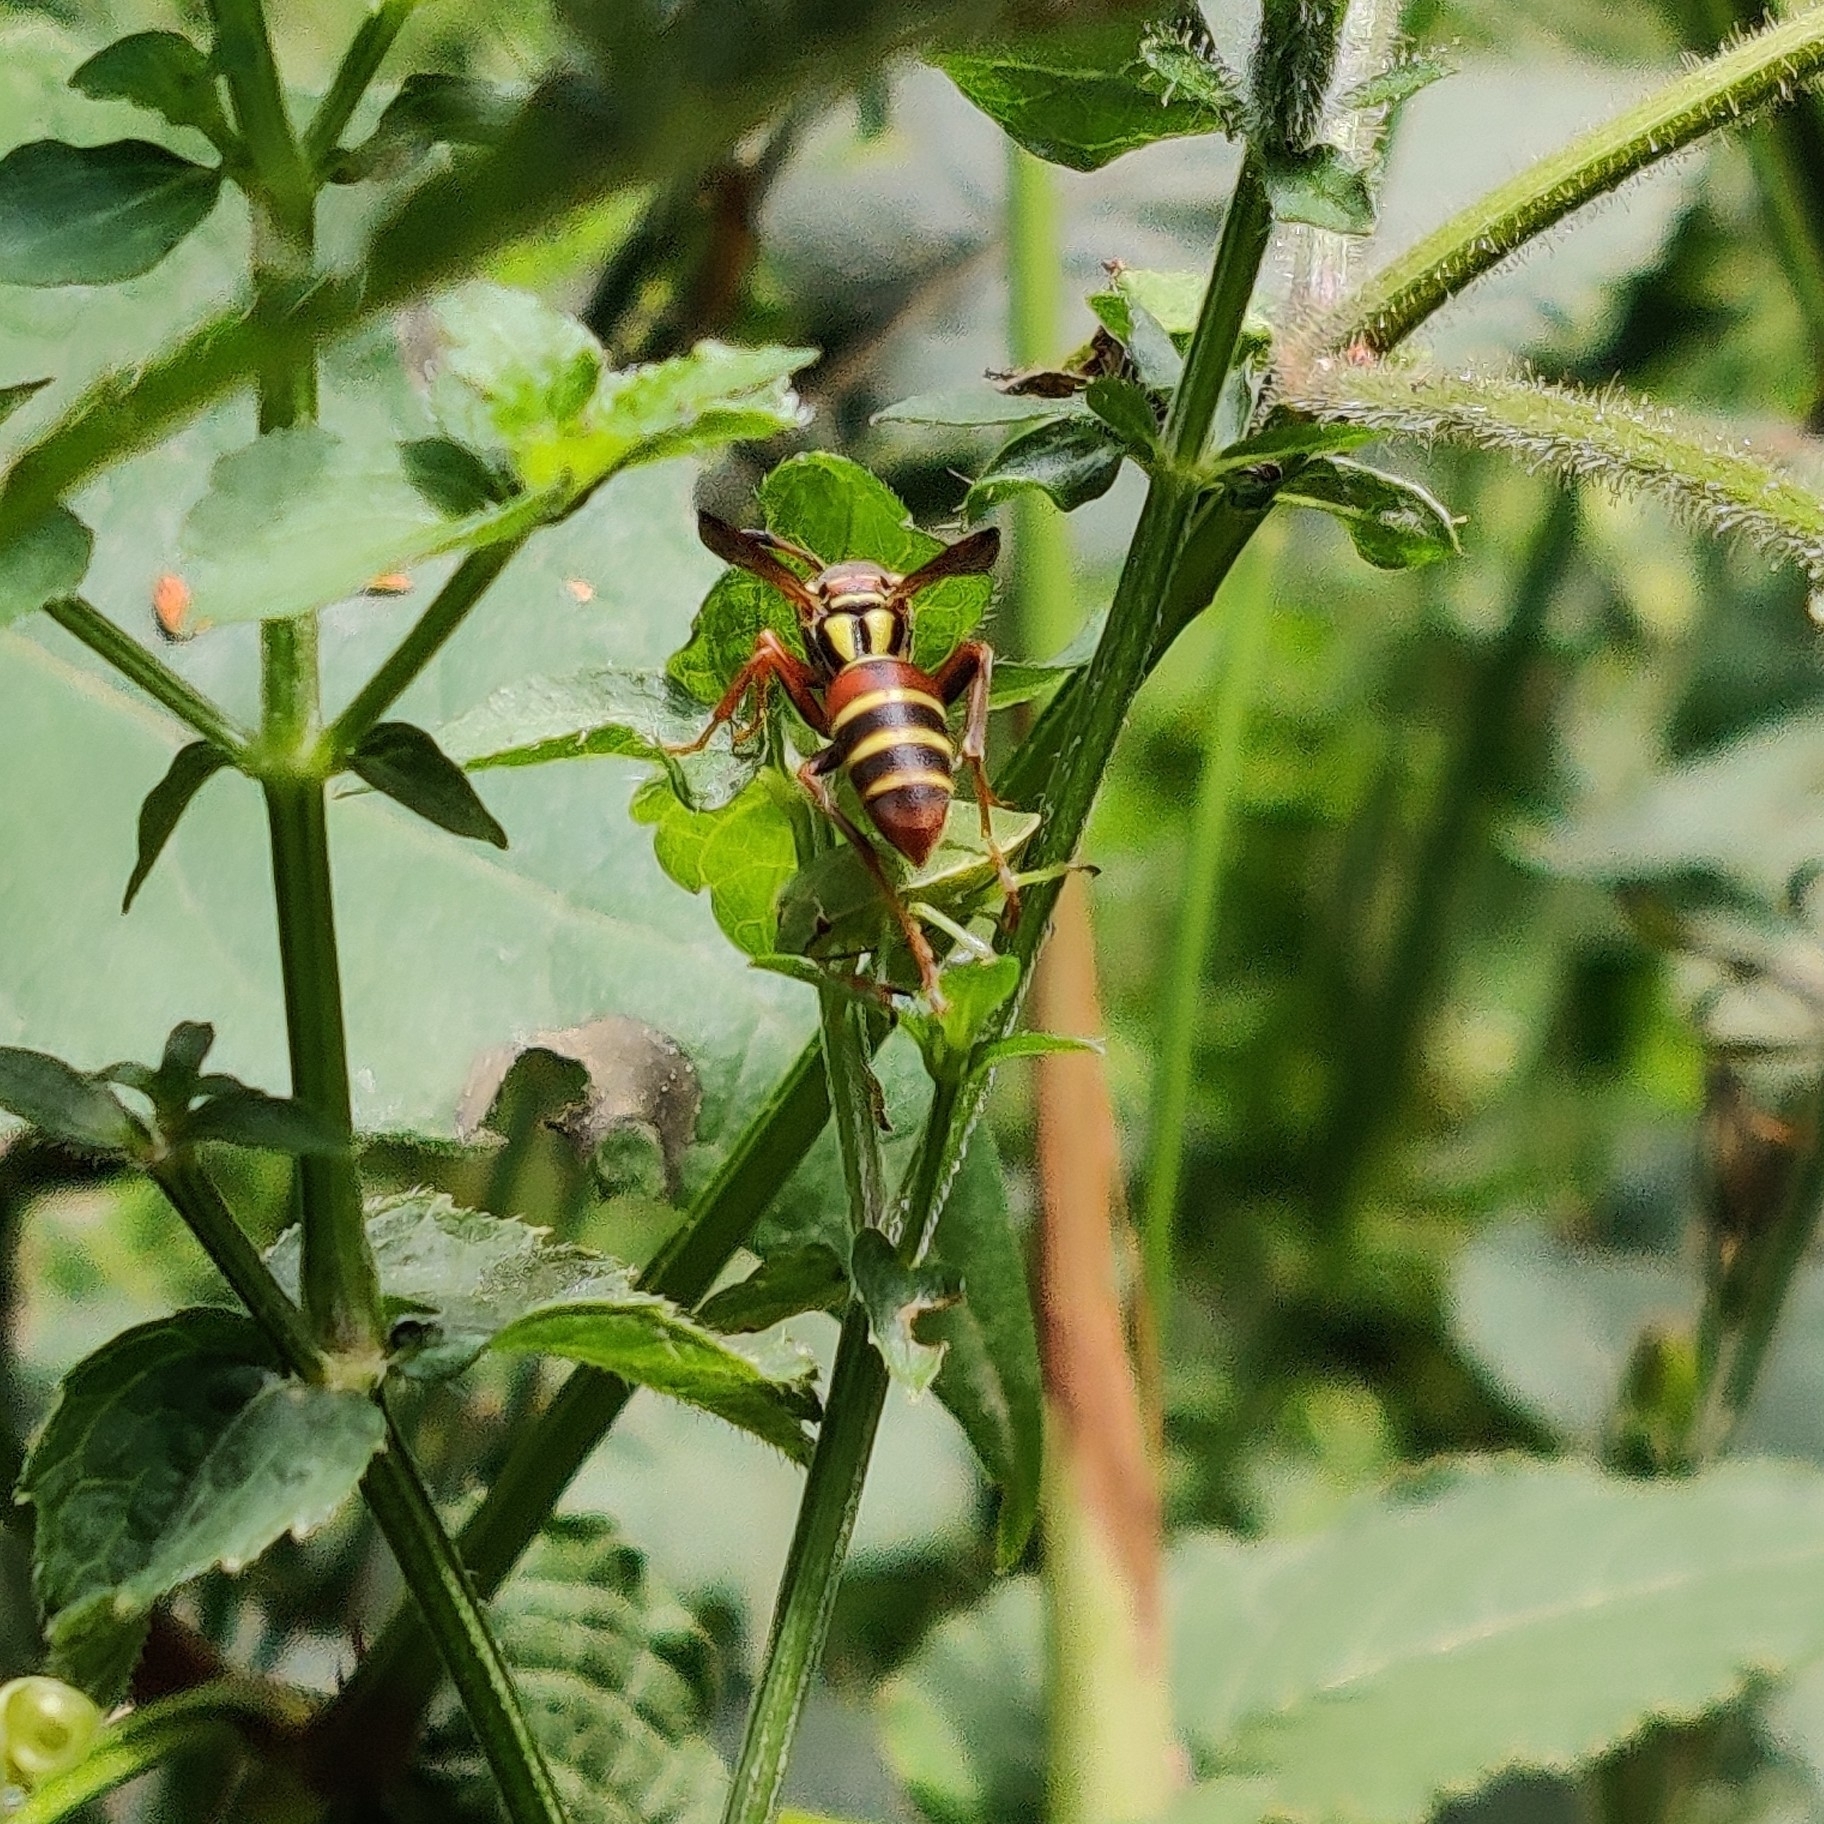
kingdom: Animalia
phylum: Arthropoda
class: Insecta
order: Hymenoptera
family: Eumenidae
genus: Knemodynerus
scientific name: Knemodynerus multimaculatus
